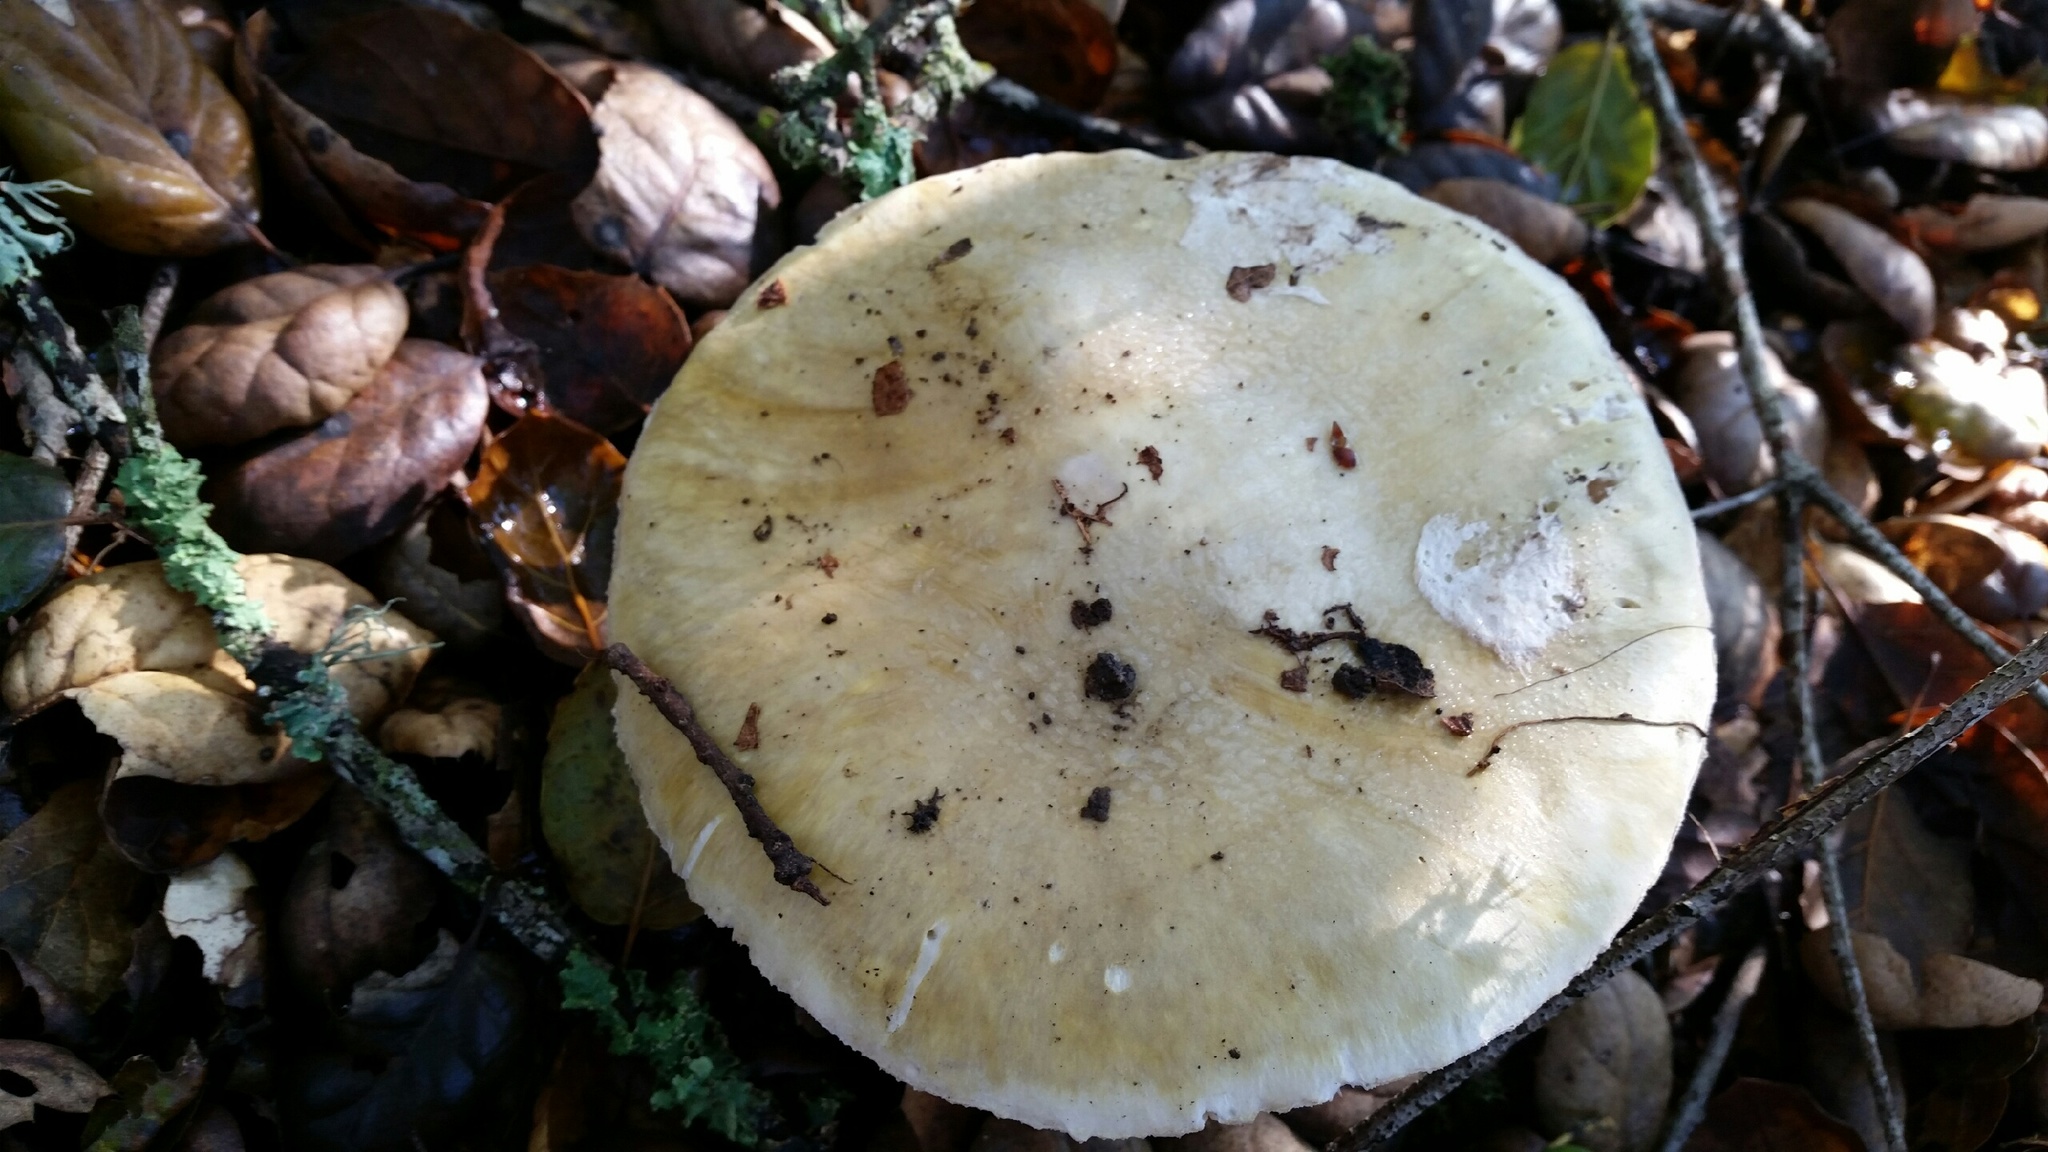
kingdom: Fungi
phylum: Basidiomycota
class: Agaricomycetes
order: Agaricales
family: Amanitaceae
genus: Amanita
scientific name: Amanita phalloides
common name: Death cap
